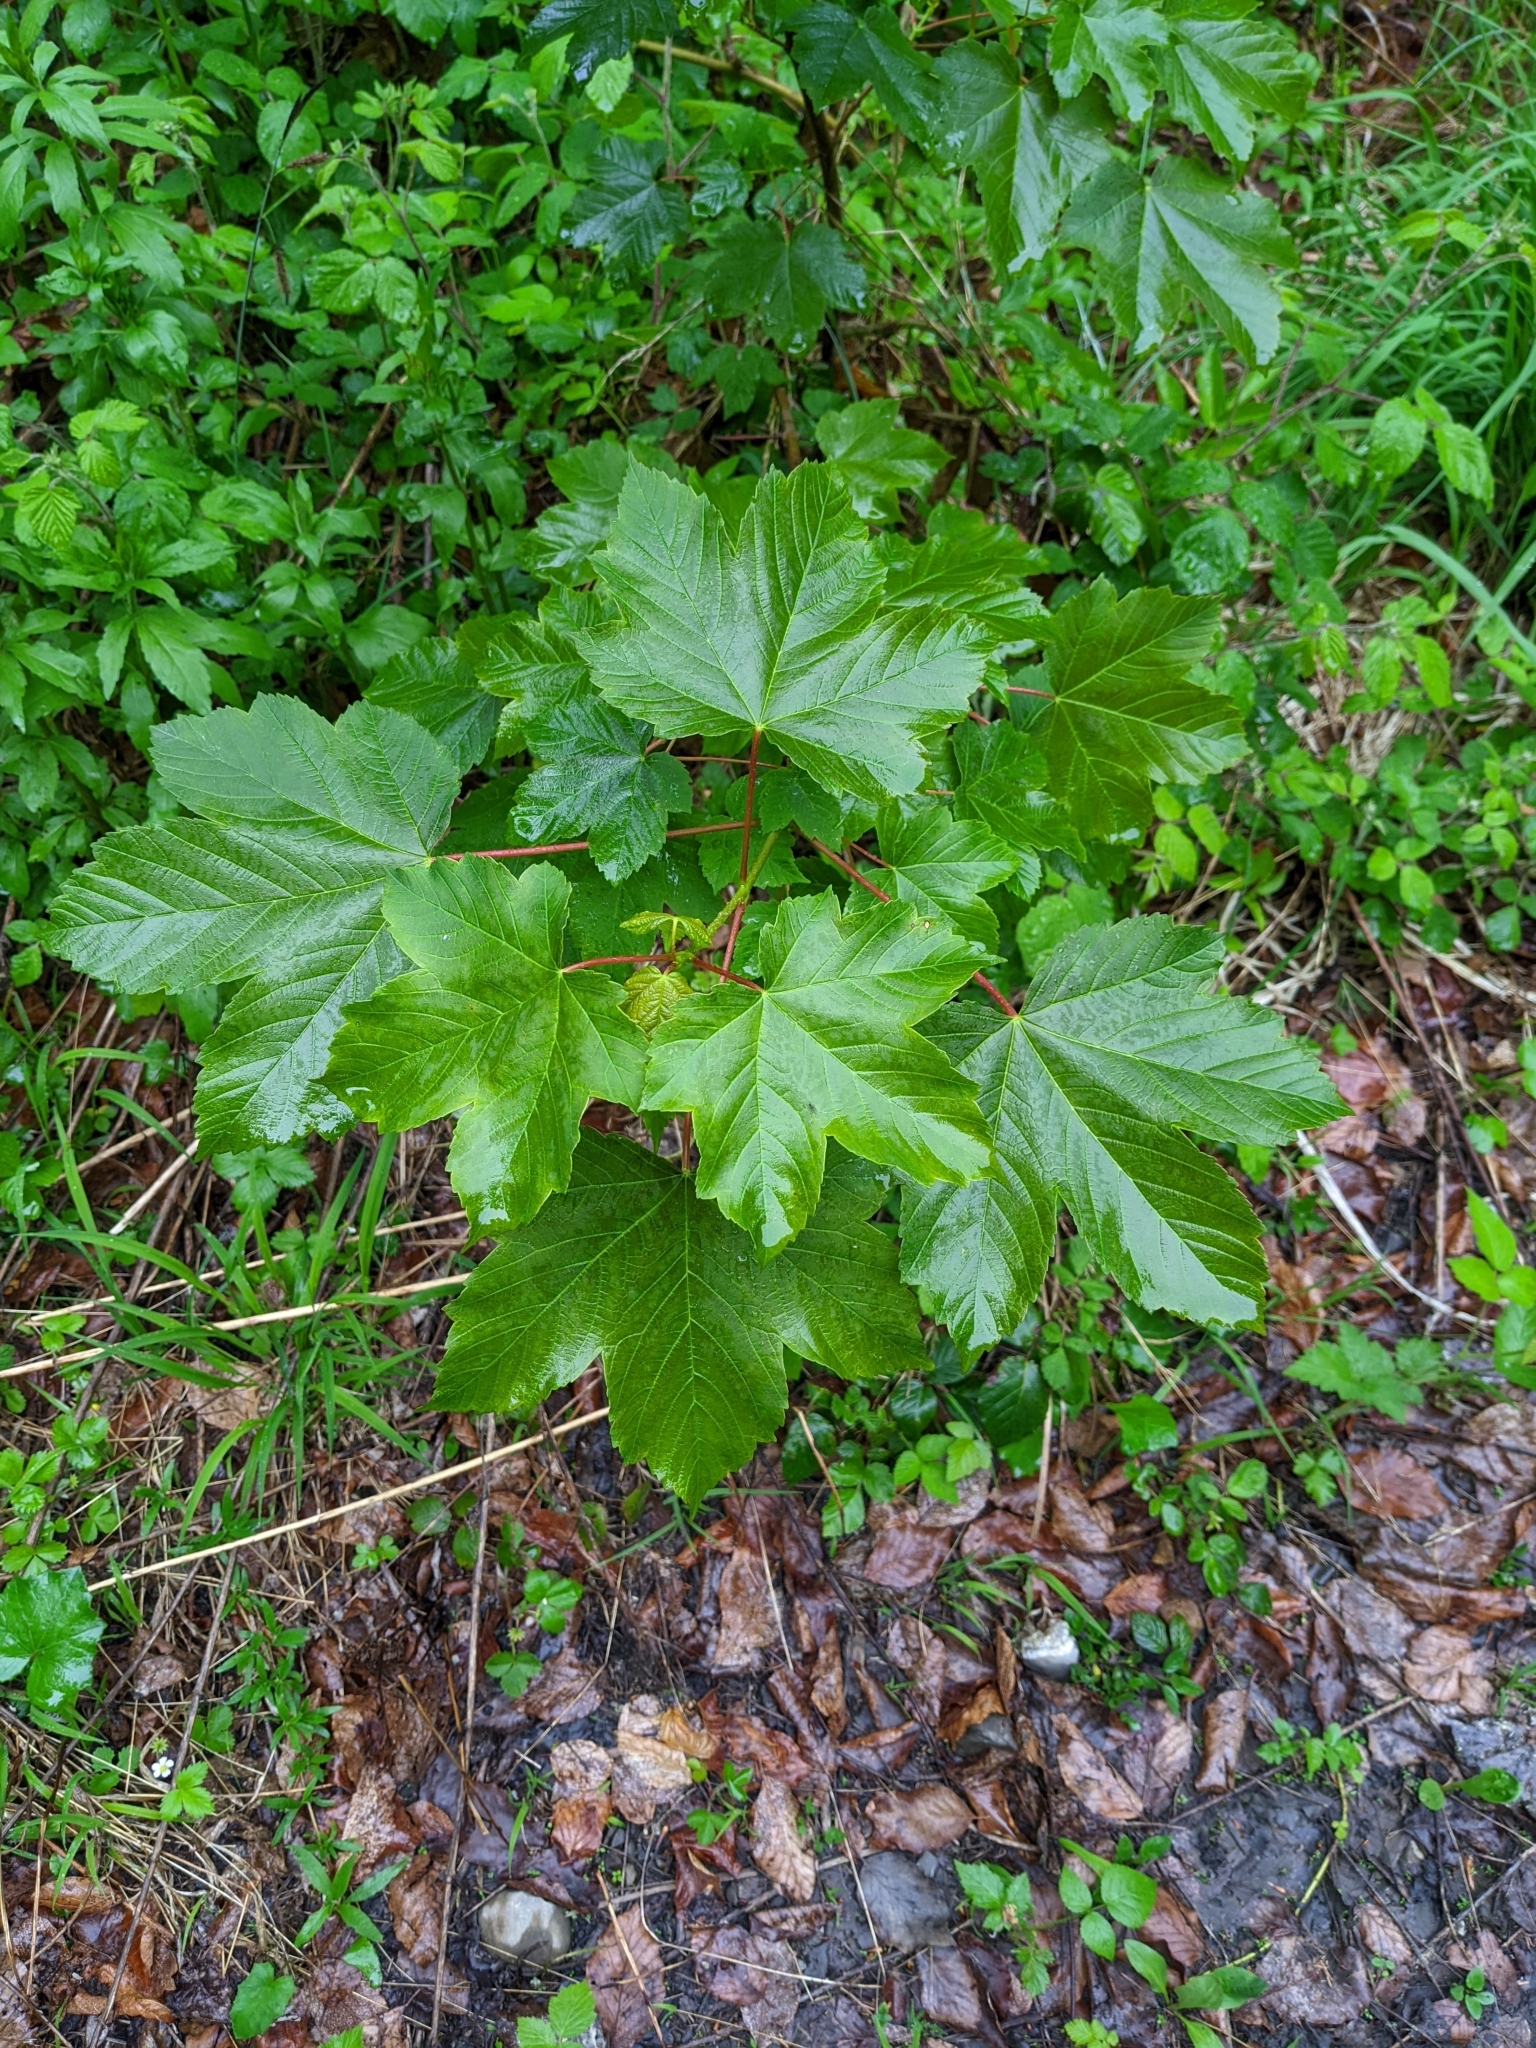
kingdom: Plantae
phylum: Tracheophyta
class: Magnoliopsida
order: Sapindales
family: Sapindaceae
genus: Acer
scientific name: Acer pseudoplatanus
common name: Sycamore
